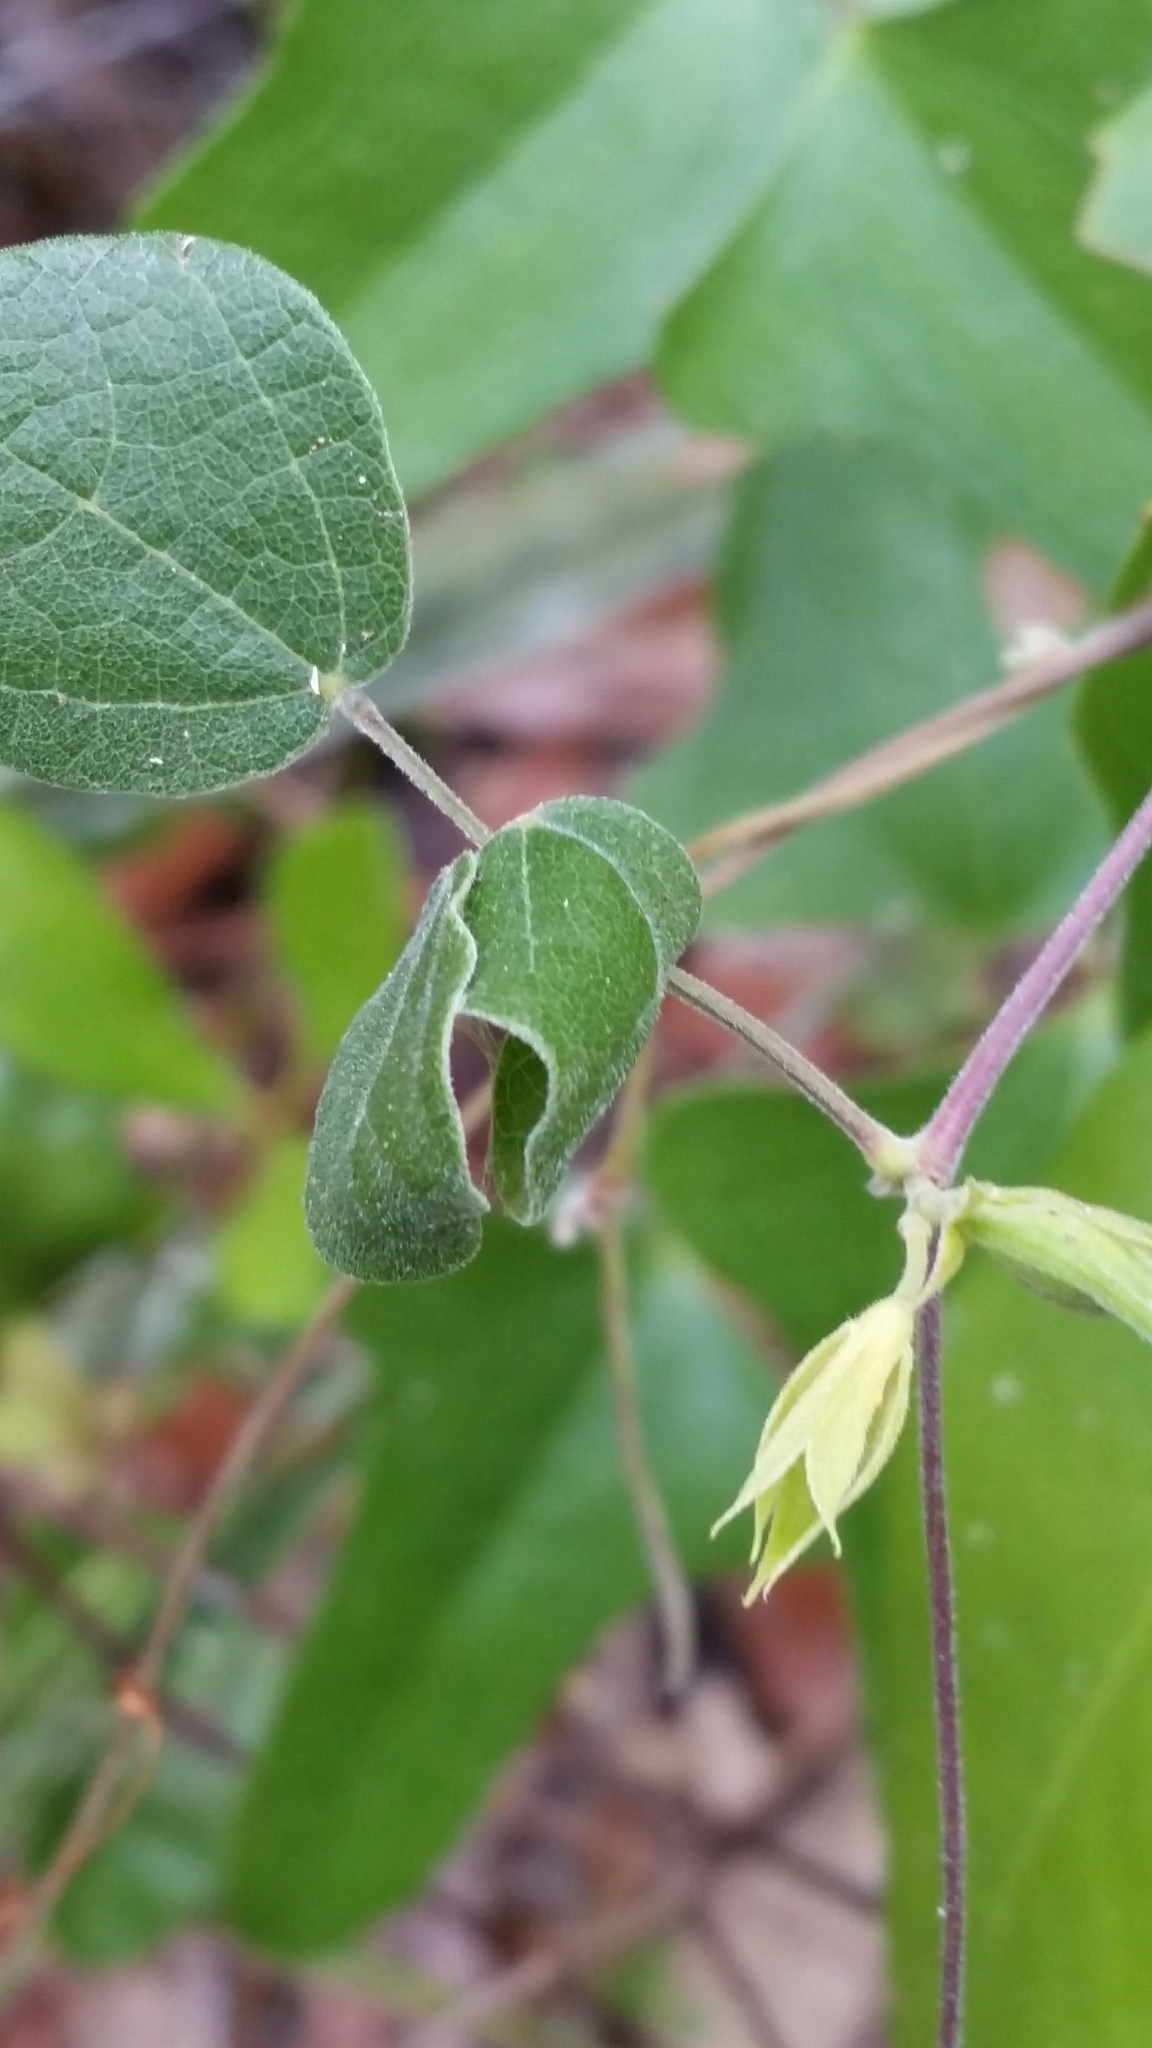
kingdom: Plantae
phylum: Tracheophyta
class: Magnoliopsida
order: Fabales
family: Fabaceae
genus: Rhynchosia
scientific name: Rhynchosia cinerea
